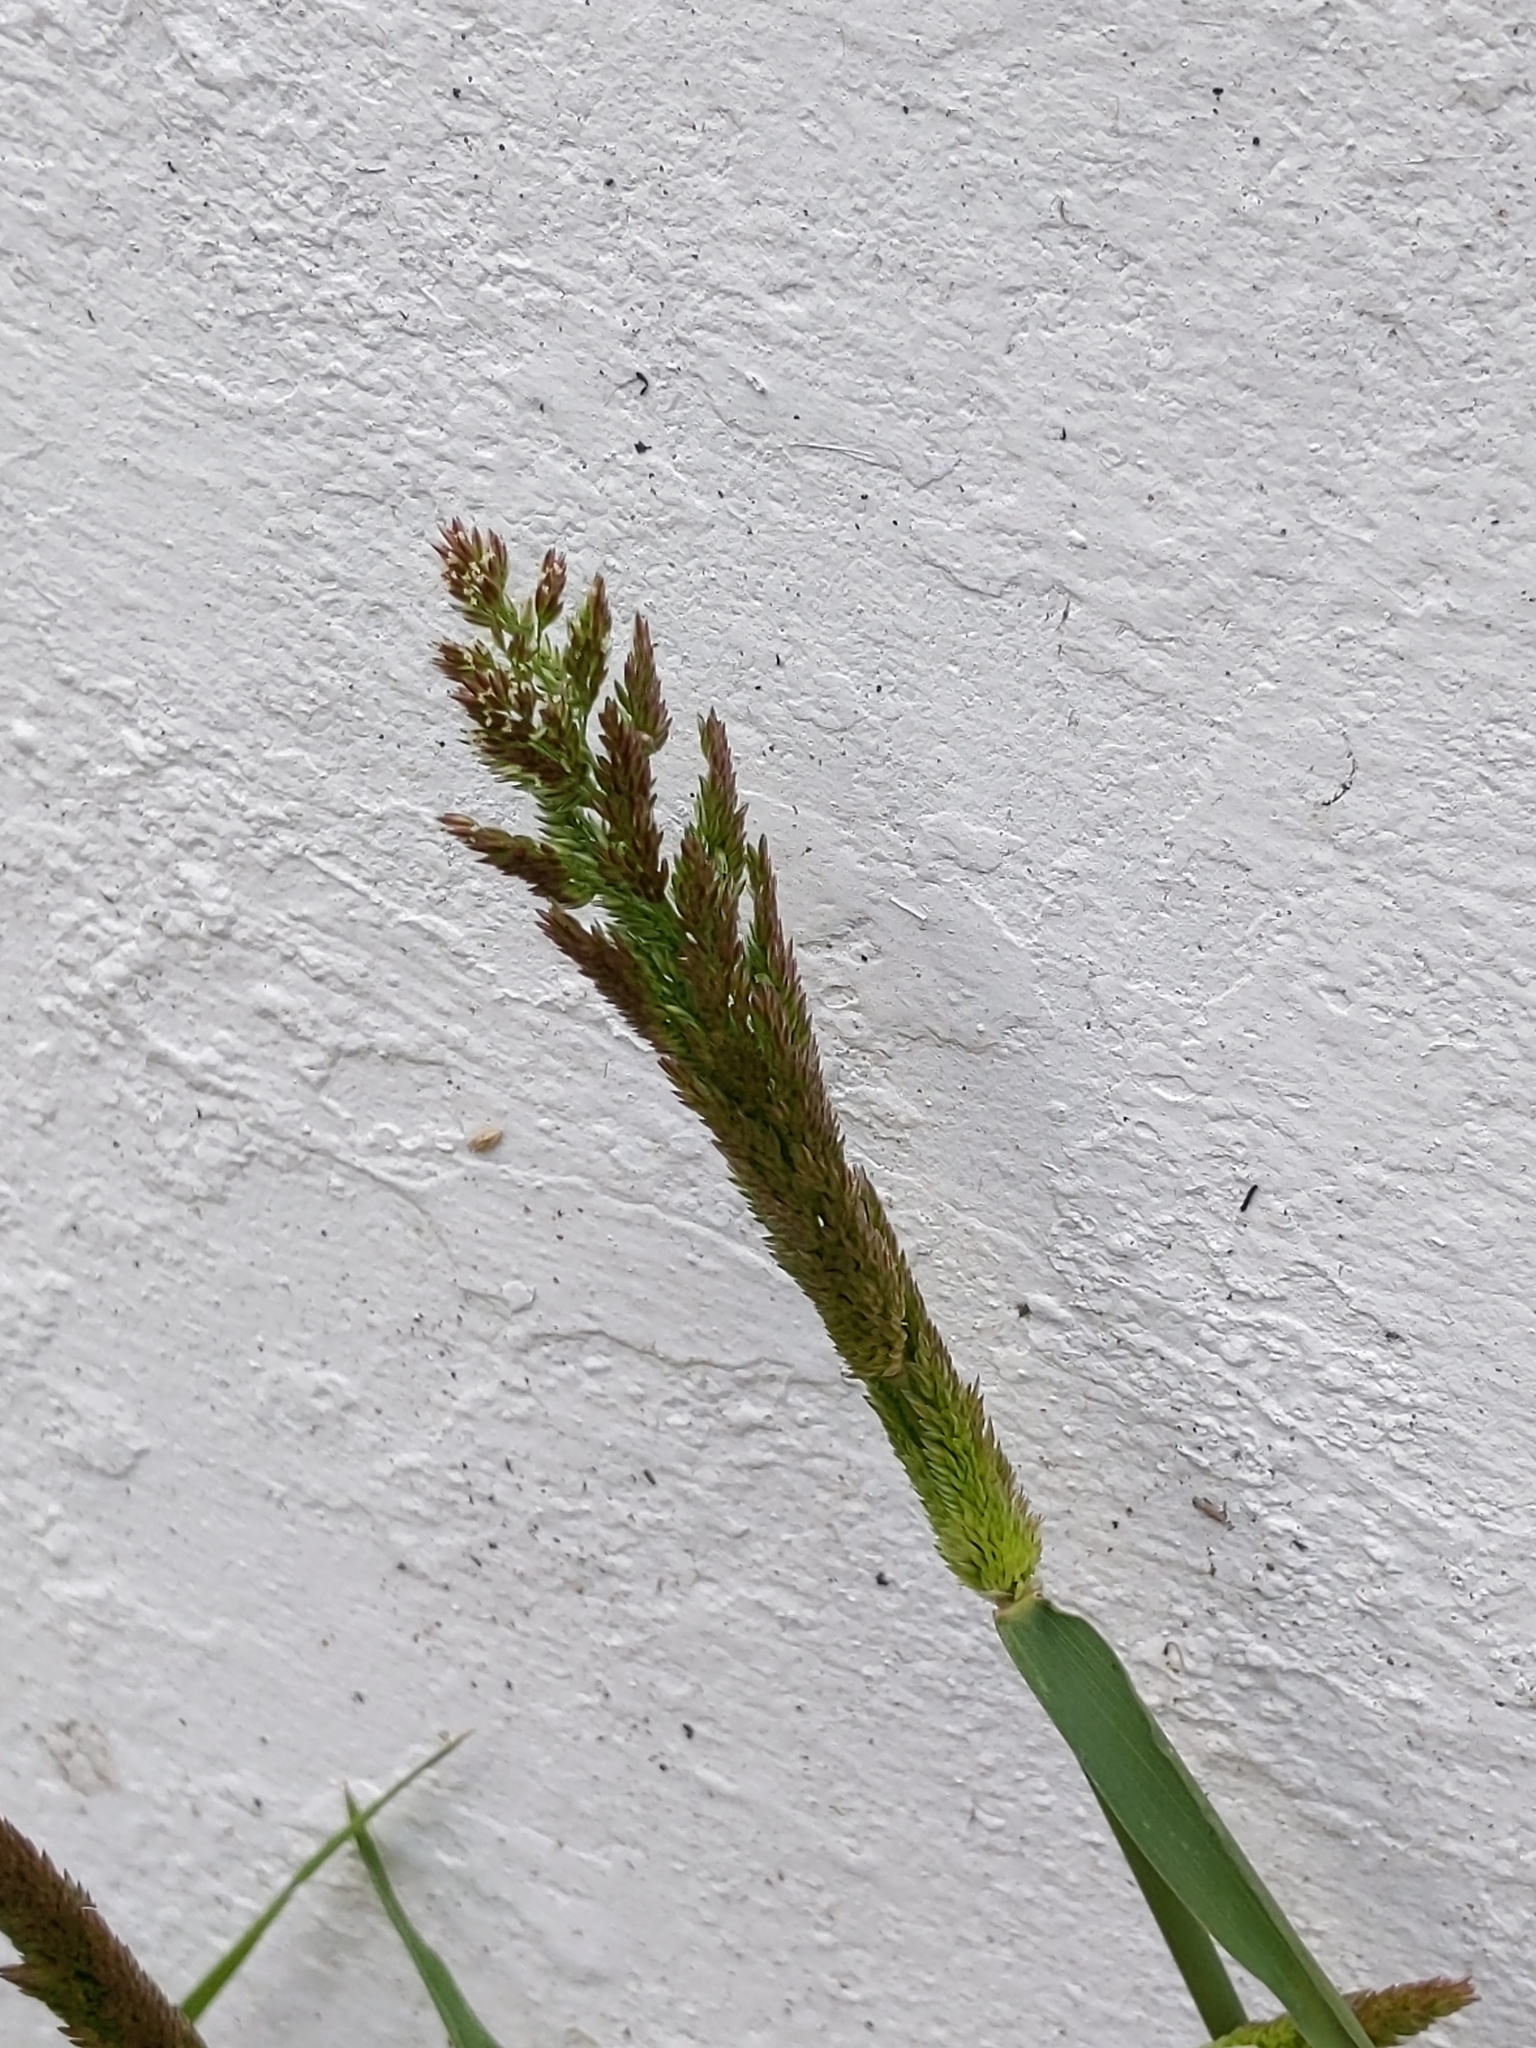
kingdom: Plantae
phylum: Tracheophyta
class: Liliopsida
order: Poales
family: Poaceae
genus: Polypogon
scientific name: Polypogon viridis
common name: Water bent
